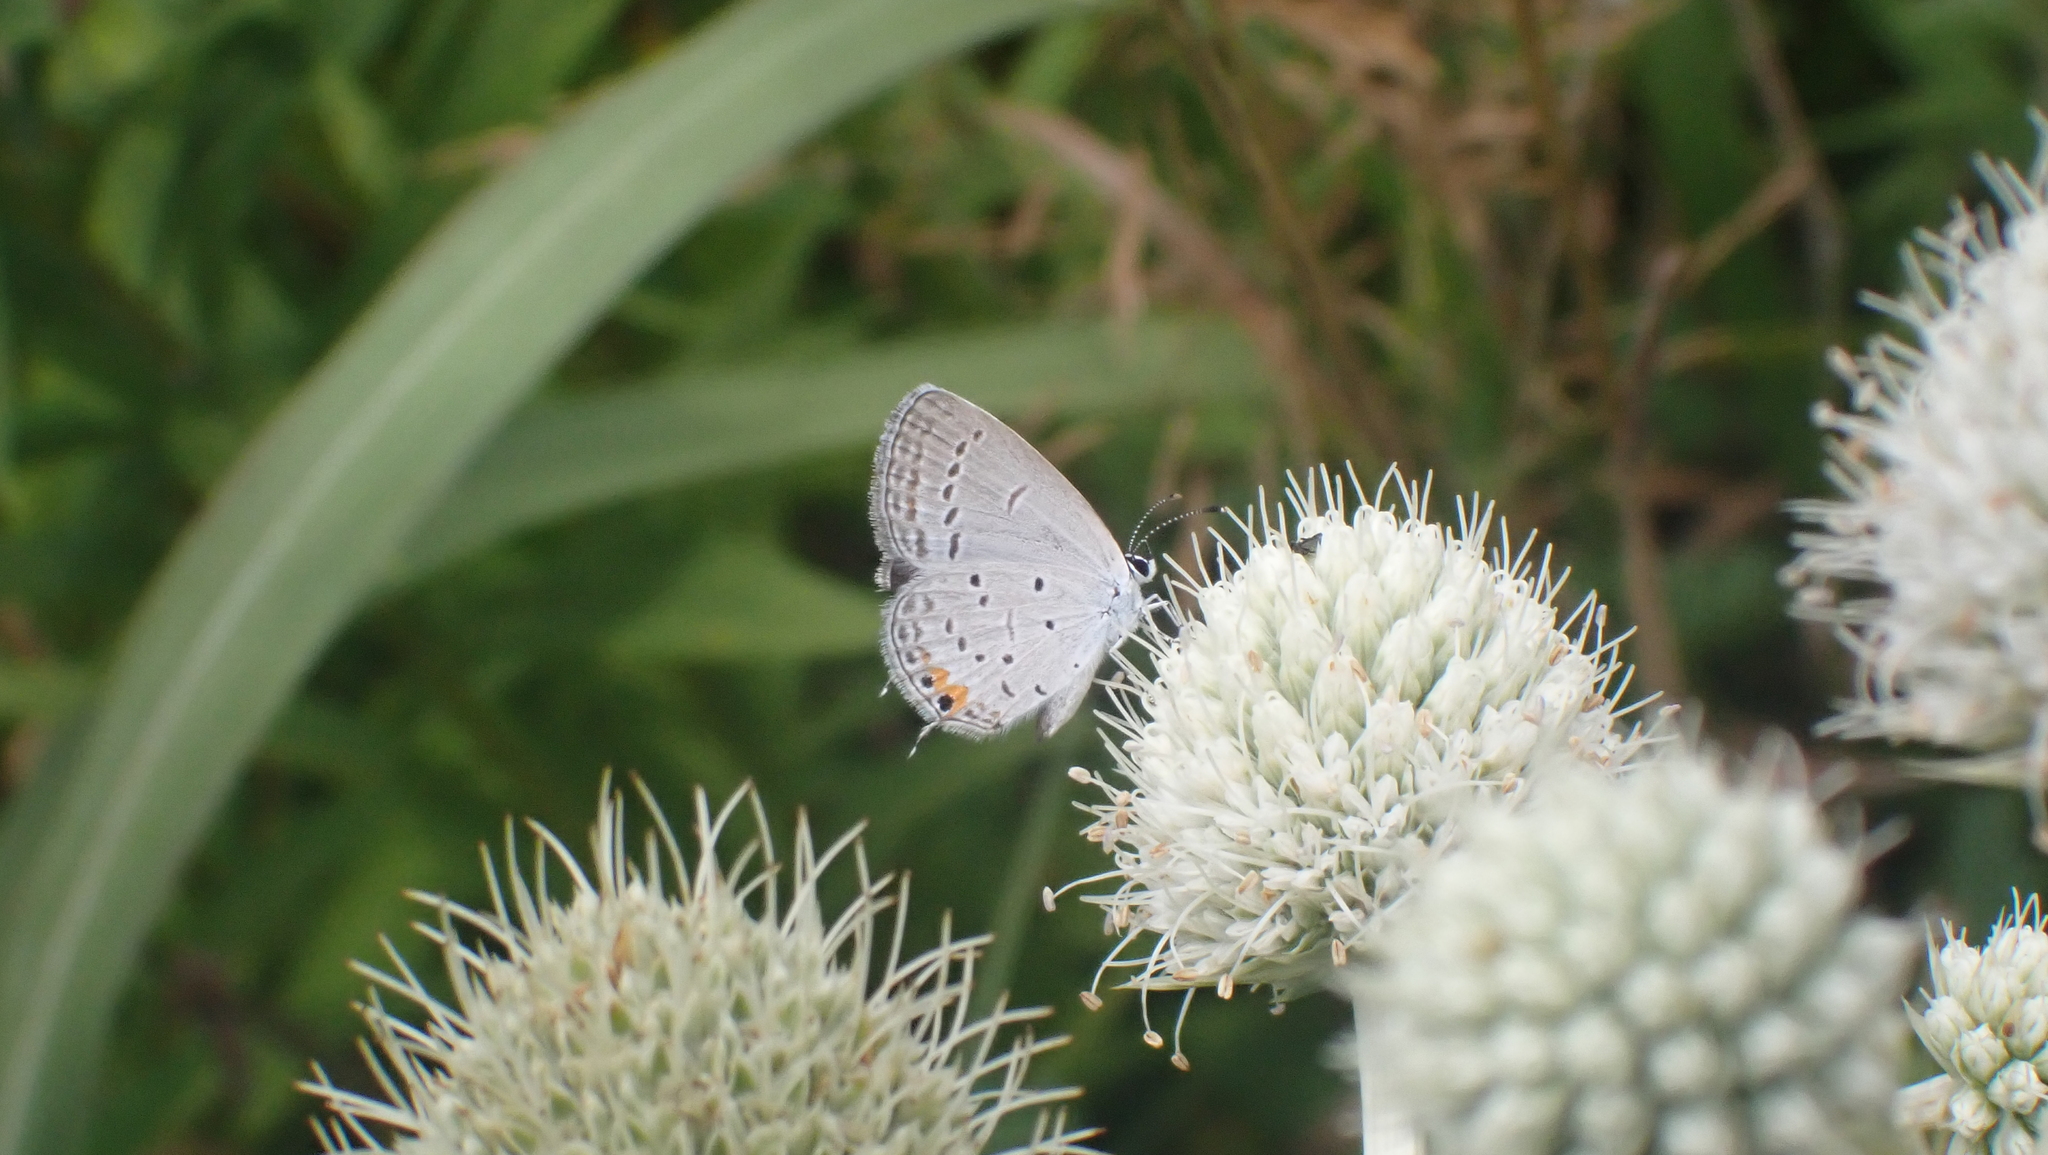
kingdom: Animalia
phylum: Arthropoda
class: Insecta
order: Lepidoptera
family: Lycaenidae
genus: Elkalyce
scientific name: Elkalyce comyntas
